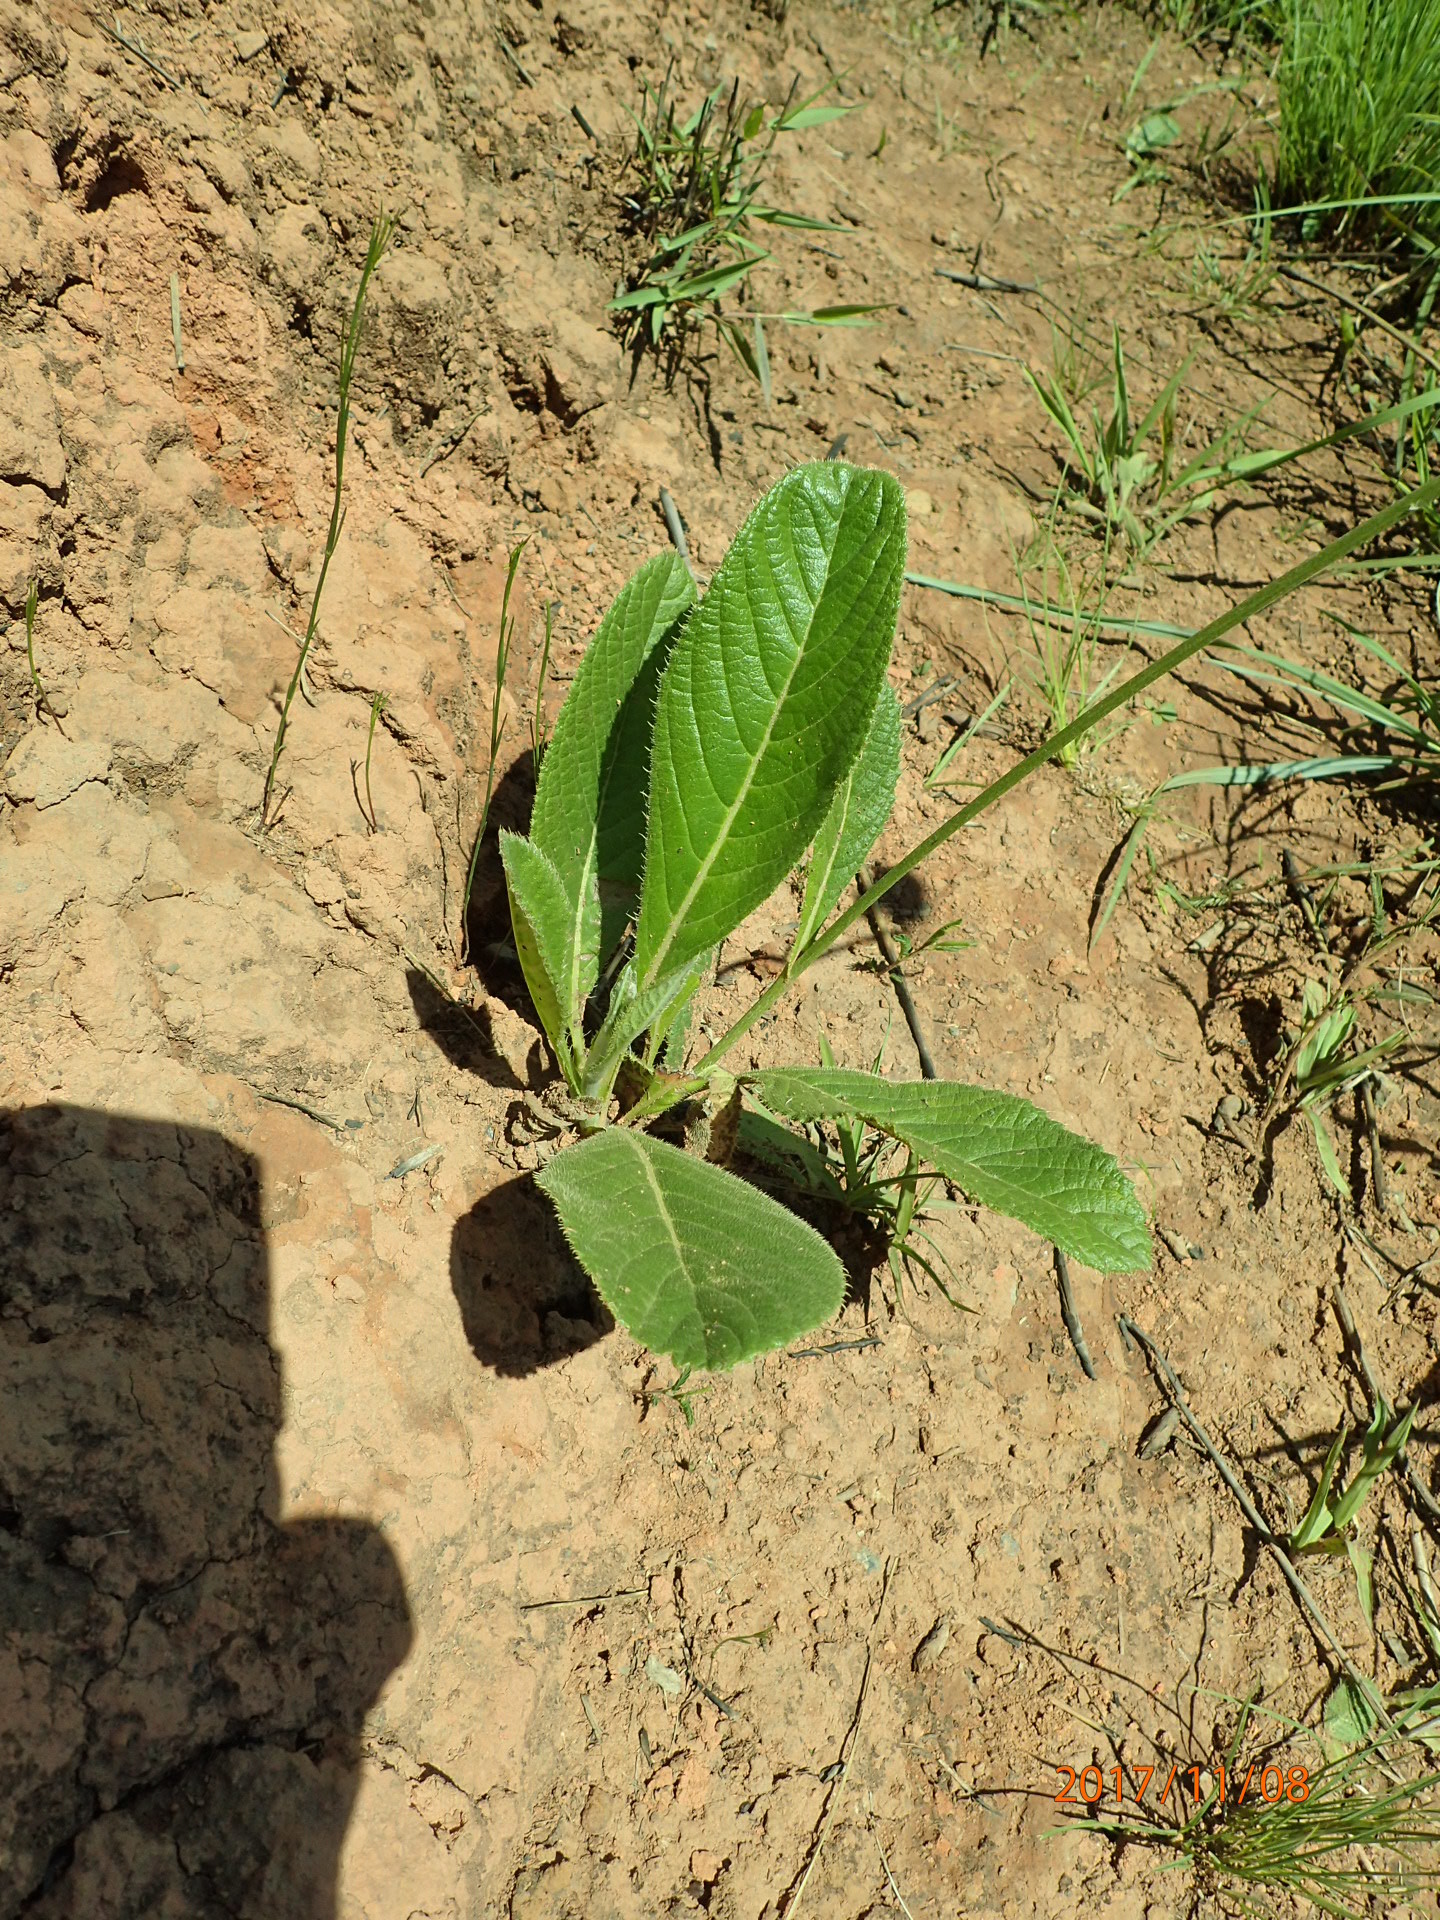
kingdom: Plantae
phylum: Tracheophyta
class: Magnoliopsida
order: Asterales
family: Asteraceae
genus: Berkheya
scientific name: Berkheya setifera
